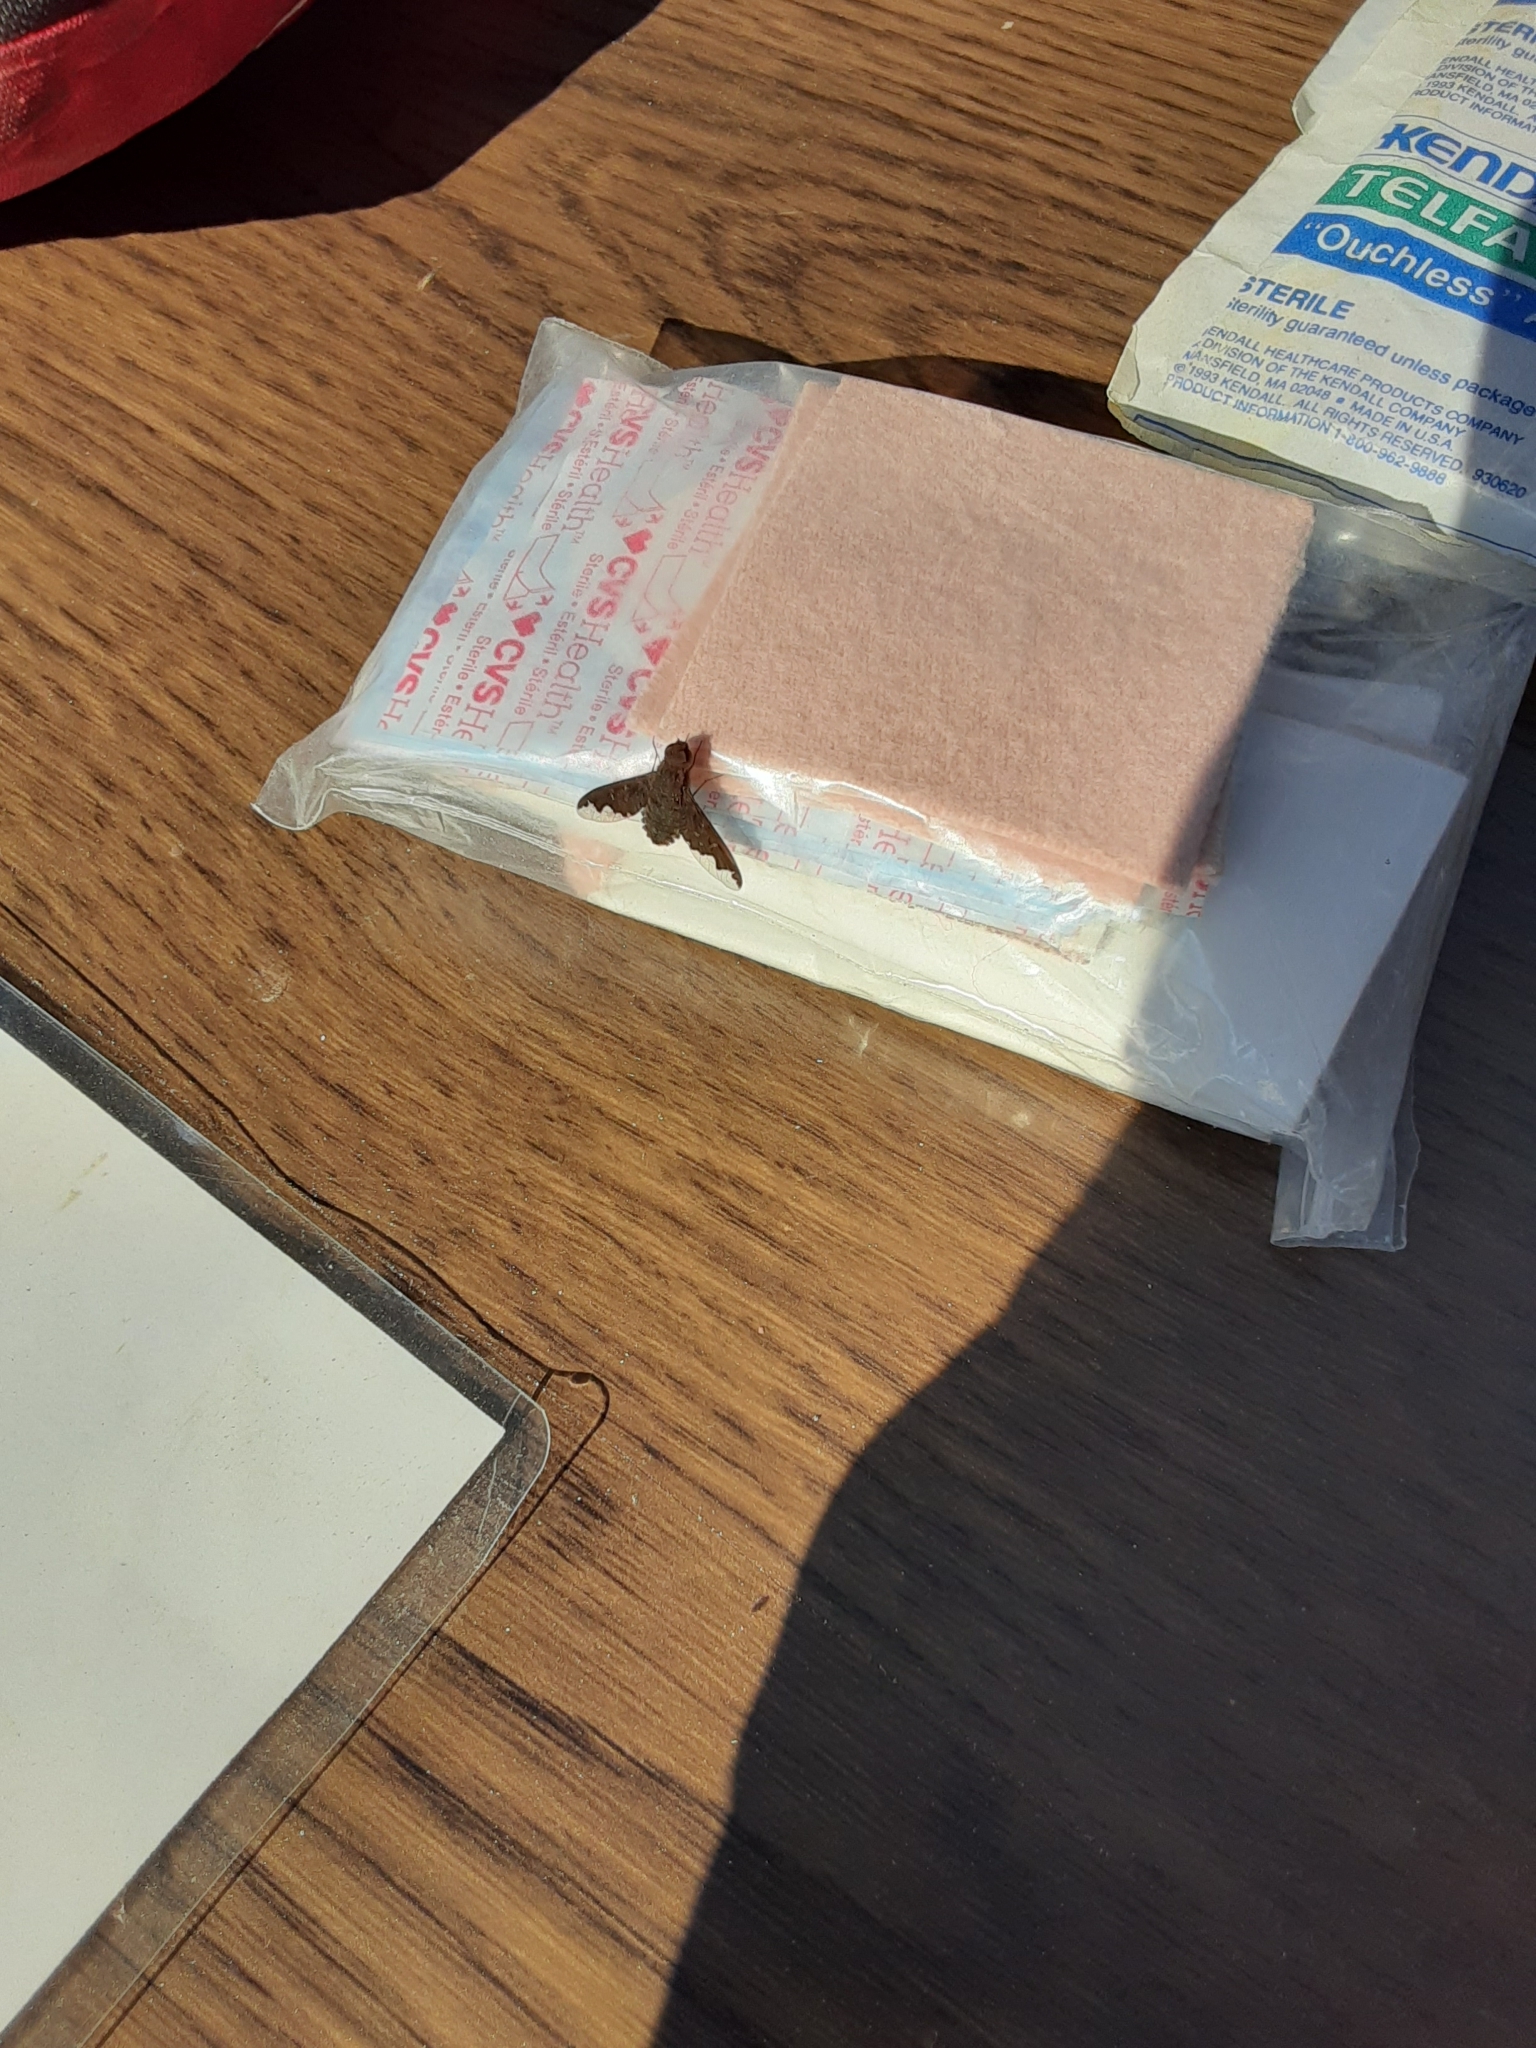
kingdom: Animalia
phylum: Arthropoda
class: Insecta
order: Diptera
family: Bombyliidae
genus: Hemipenthes
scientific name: Hemipenthes sinuosus
